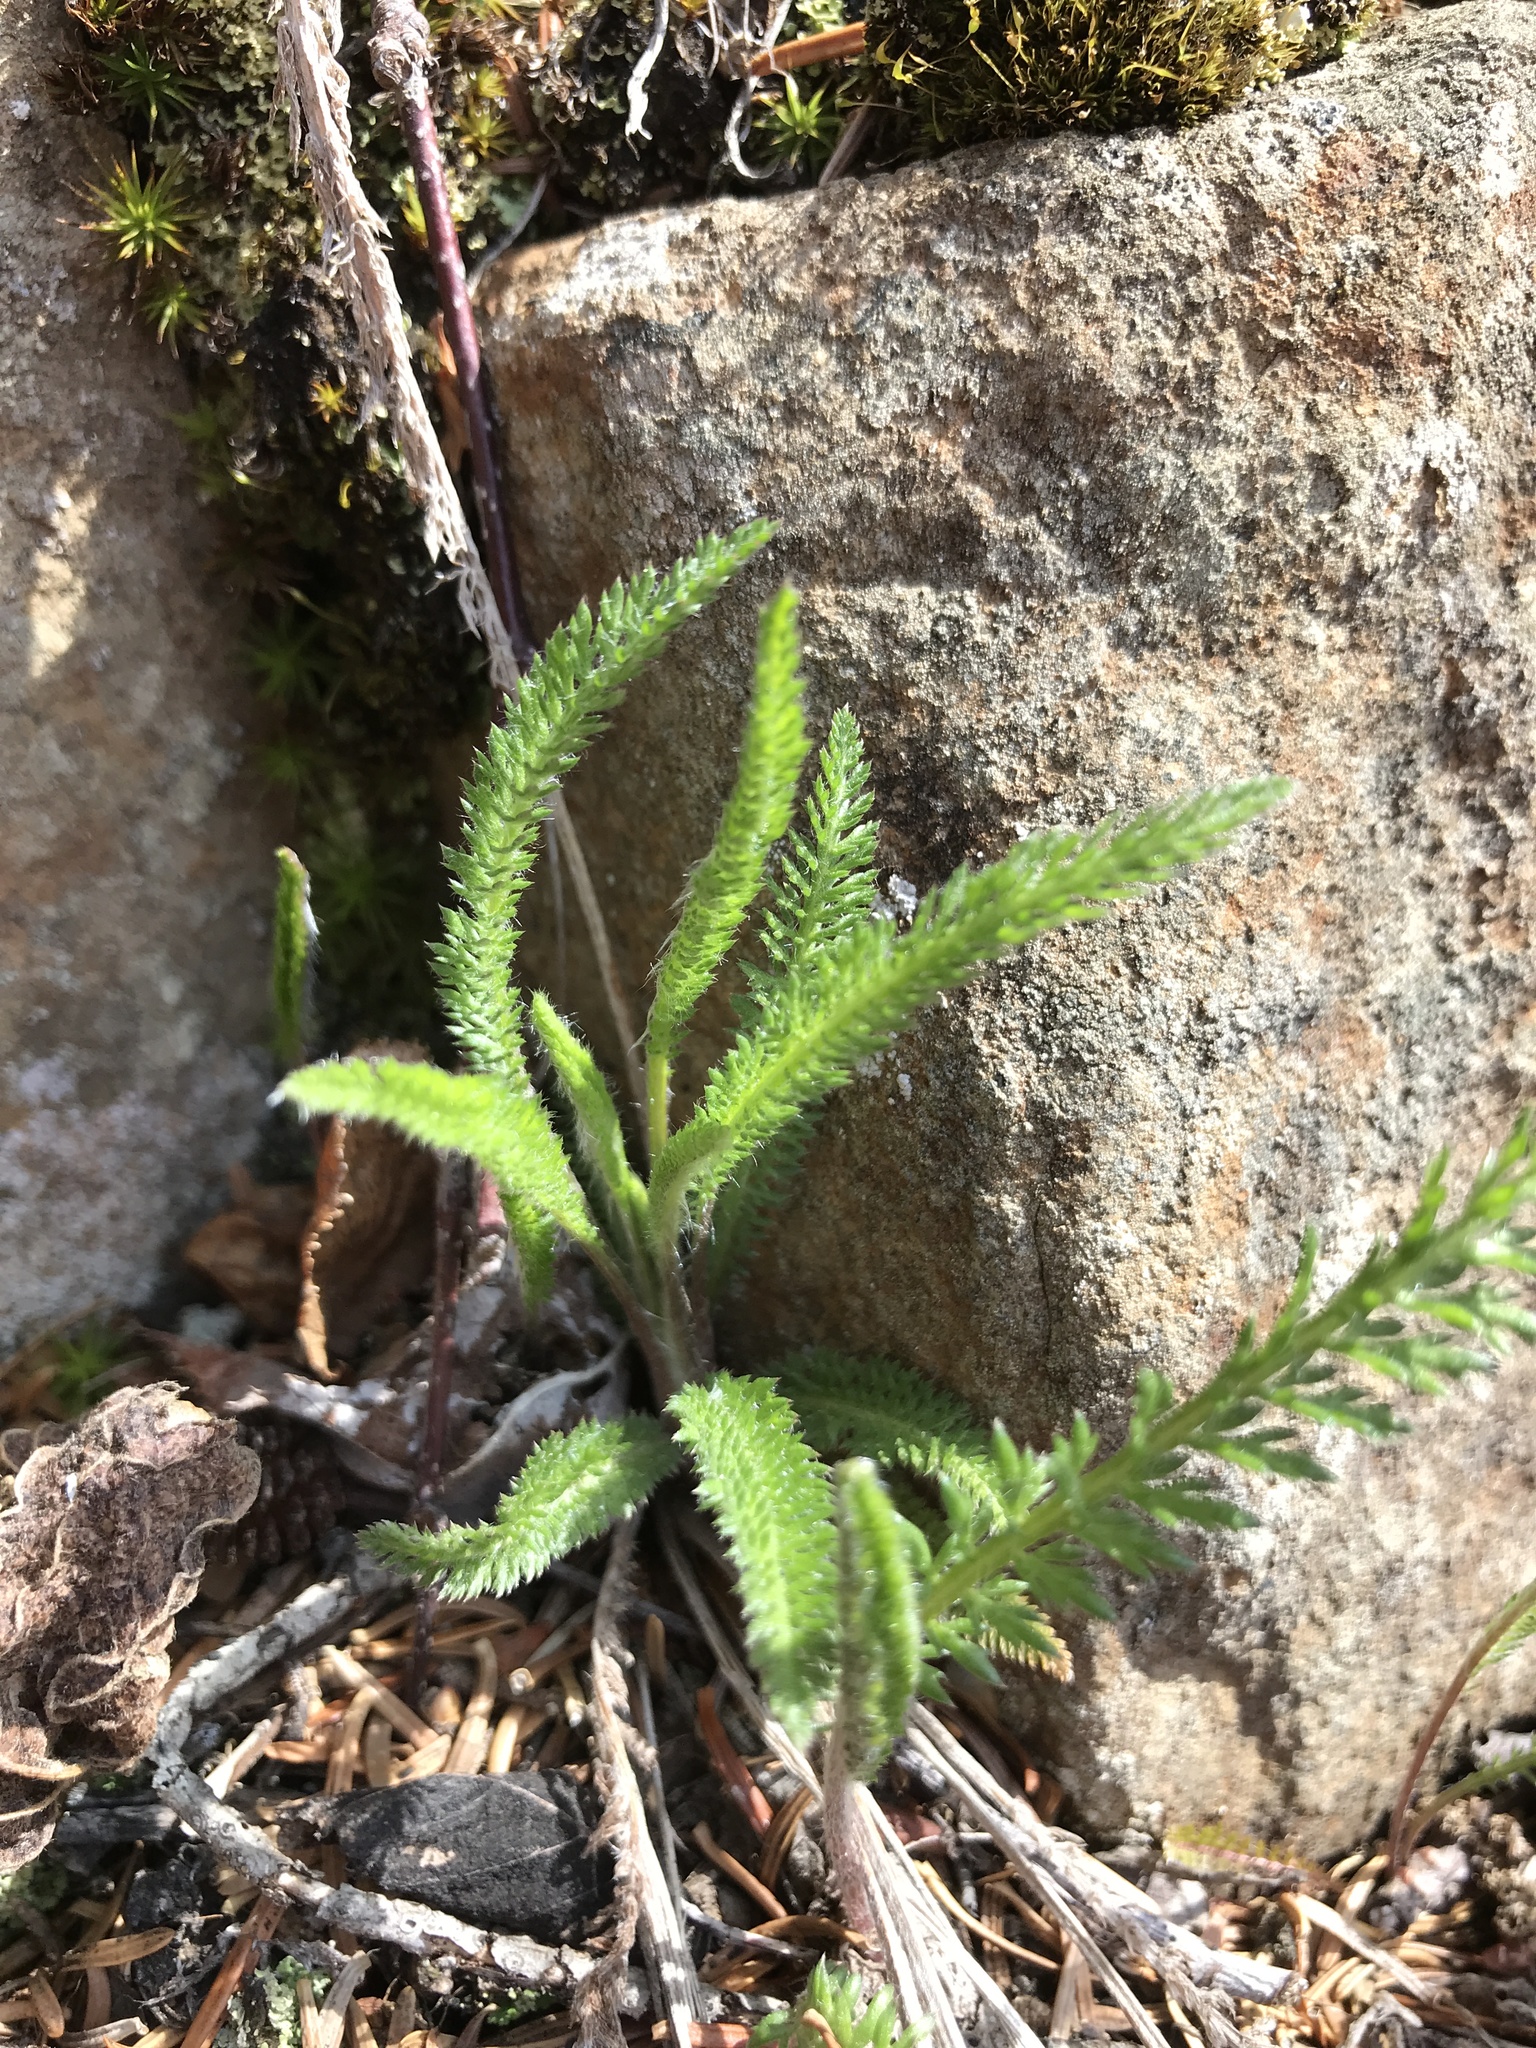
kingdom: Plantae
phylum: Tracheophyta
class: Magnoliopsida
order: Asterales
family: Asteraceae
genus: Achillea
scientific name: Achillea millefolium
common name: Yarrow
